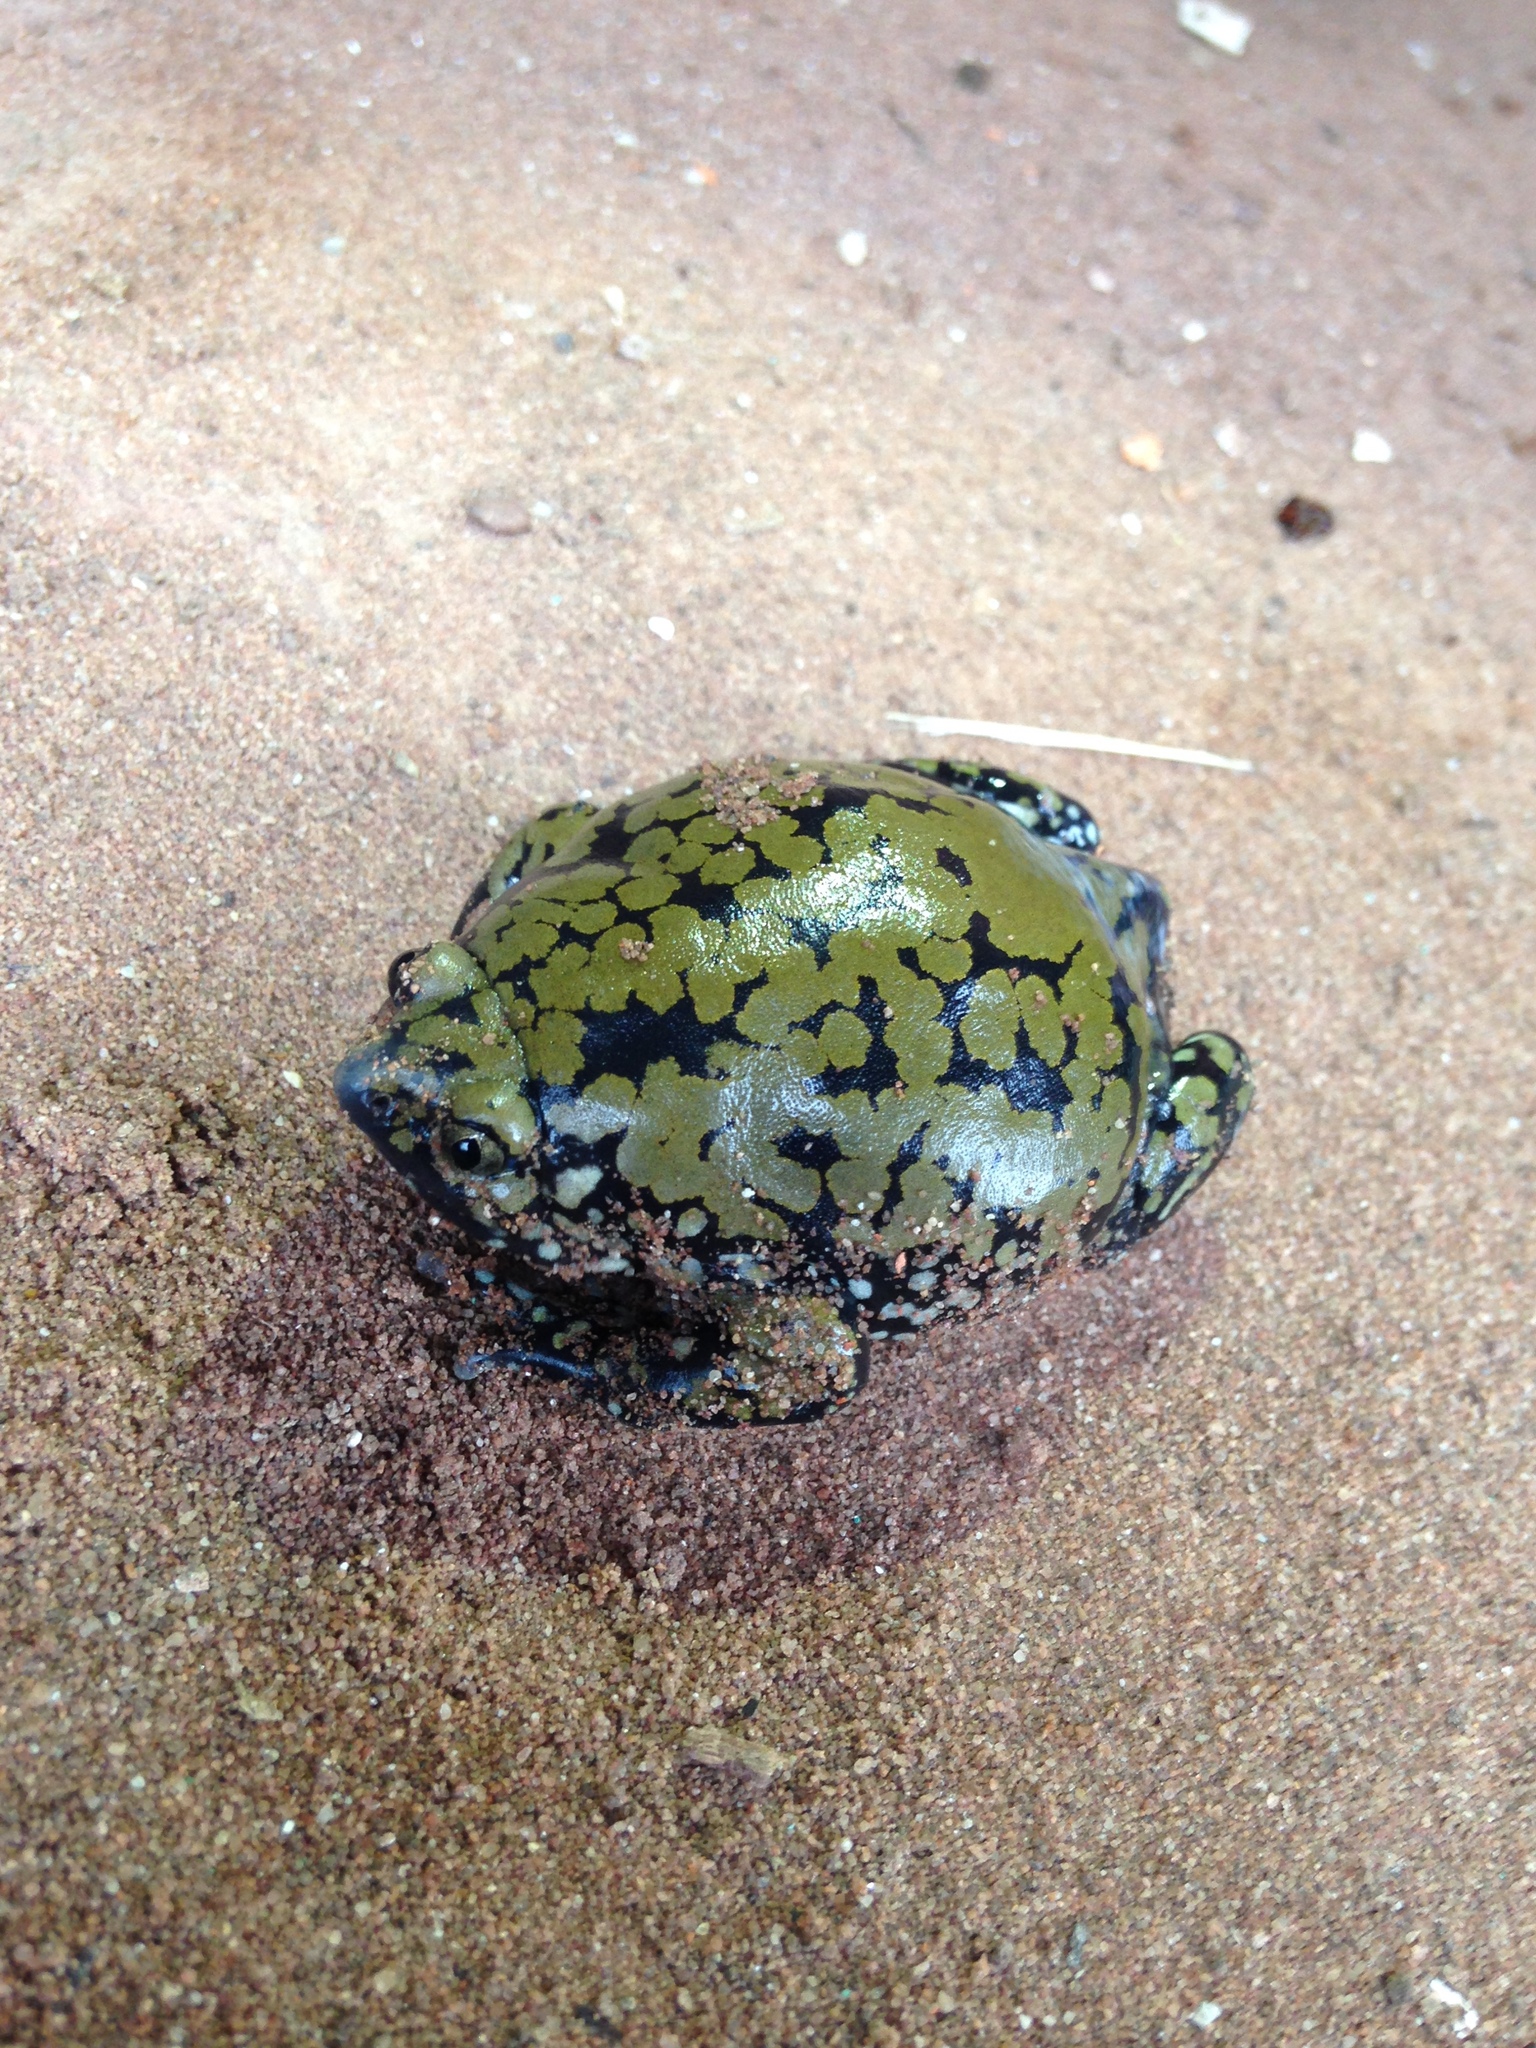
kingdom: Animalia
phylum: Chordata
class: Amphibia
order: Anura
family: Microhylidae
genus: Dermatonotus
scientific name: Dermatonotus muelleri
